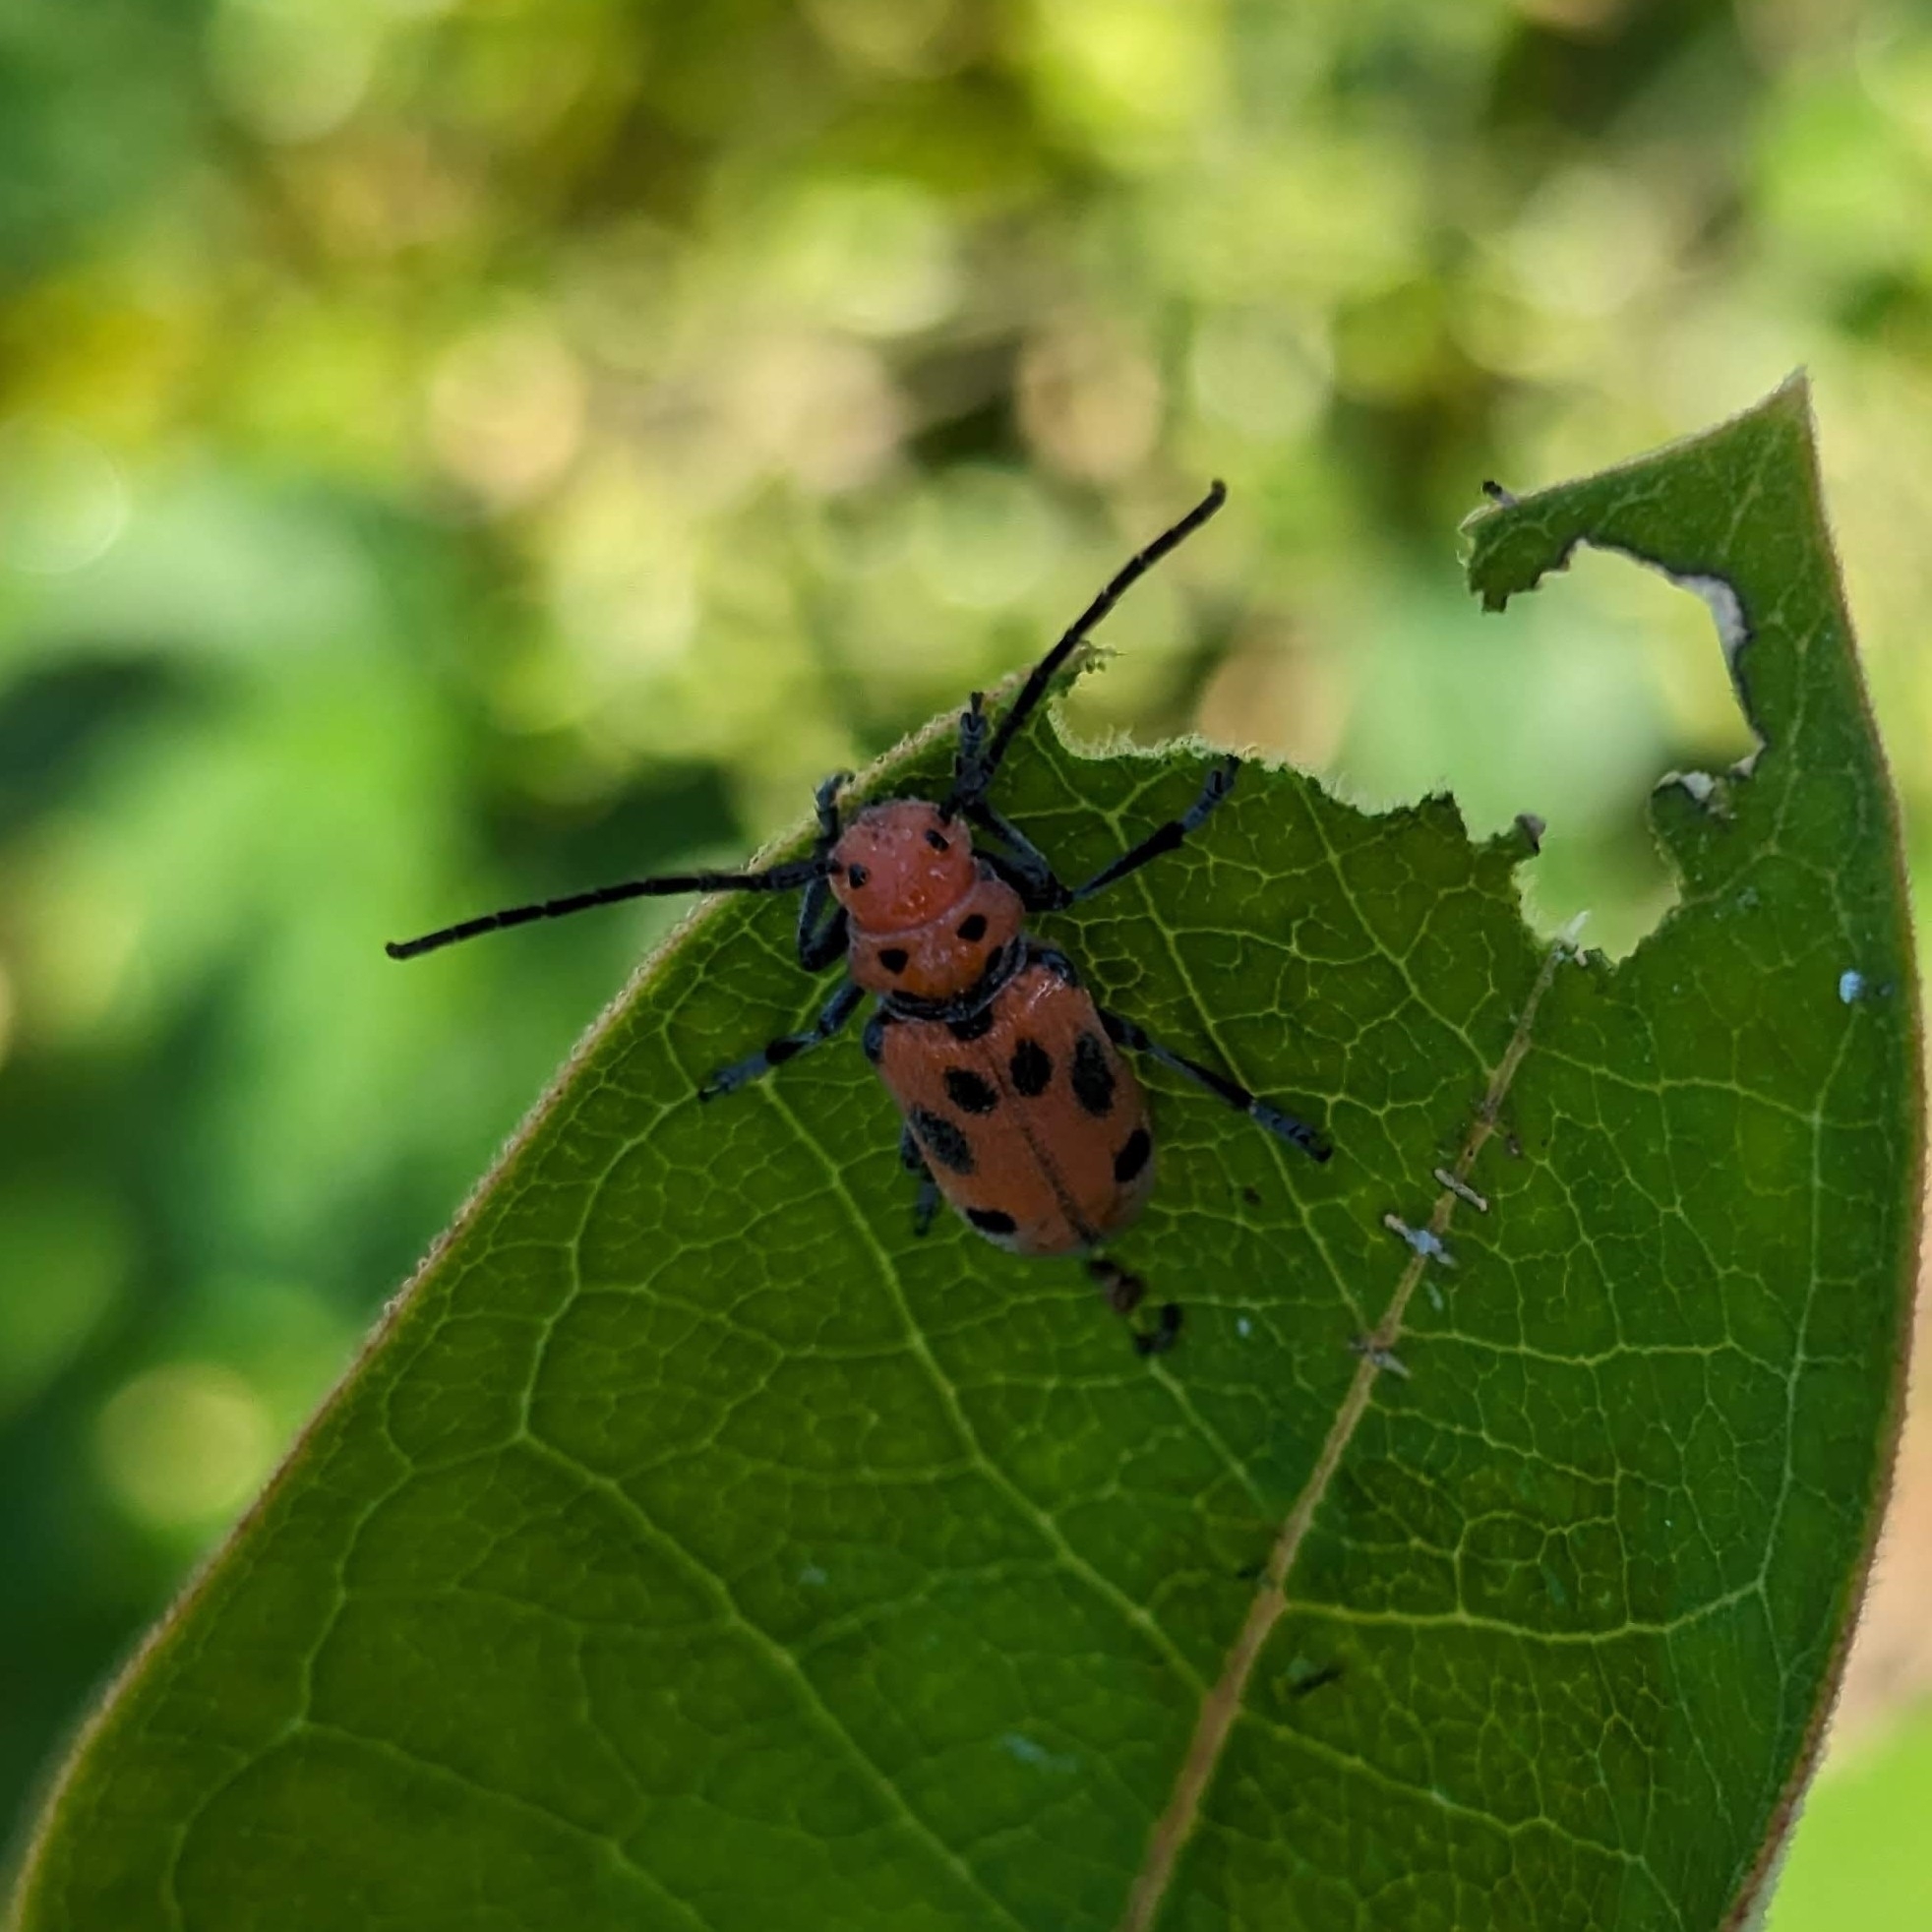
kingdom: Animalia
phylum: Arthropoda
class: Insecta
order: Coleoptera
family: Cerambycidae
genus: Tetraopes
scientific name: Tetraopes tetrophthalmus
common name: Red milkweed beetle
